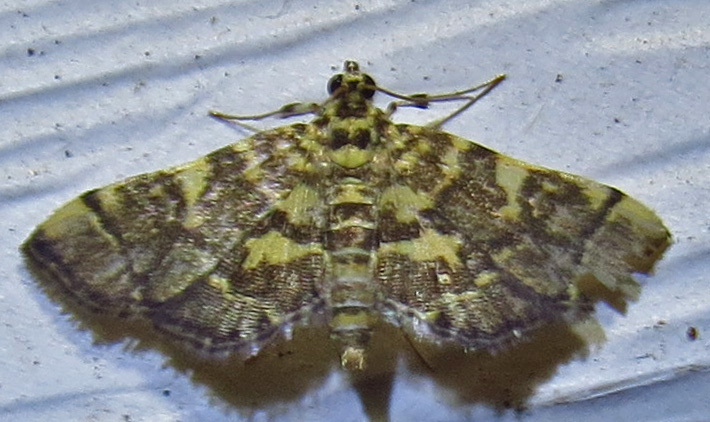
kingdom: Animalia
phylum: Arthropoda
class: Insecta
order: Lepidoptera
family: Crambidae
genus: Anageshna
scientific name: Anageshna primordialis
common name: Yellow-spotted webworm moth
